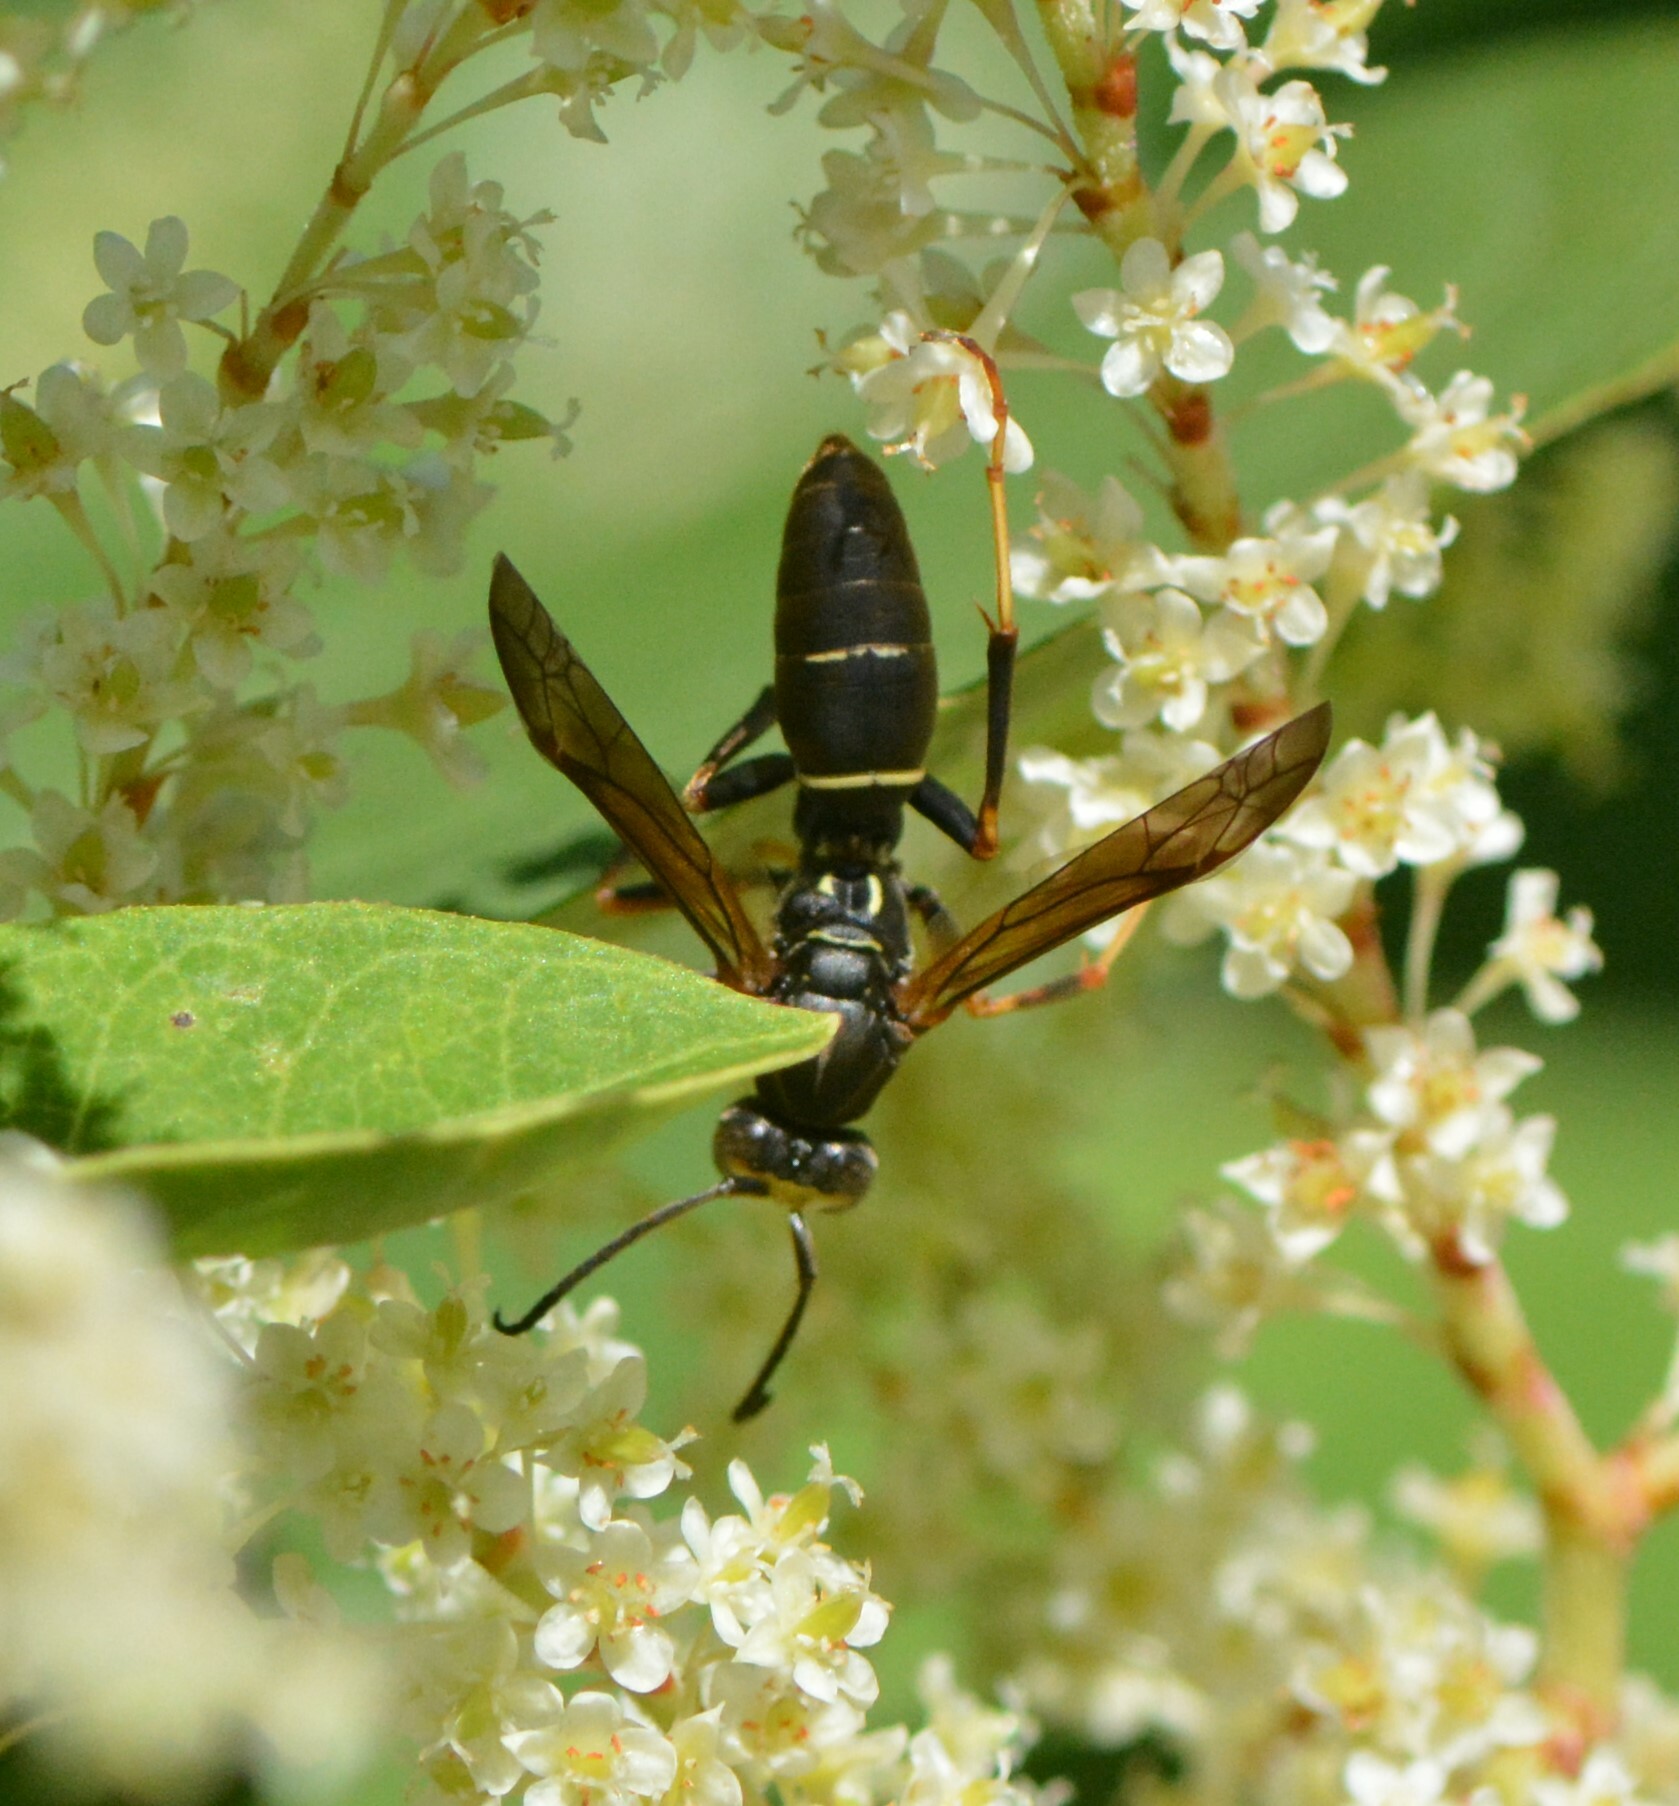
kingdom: Animalia
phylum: Arthropoda
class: Insecta
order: Hymenoptera
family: Eumenidae
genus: Polistes
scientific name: Polistes fuscatus
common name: Dark paper wasp
